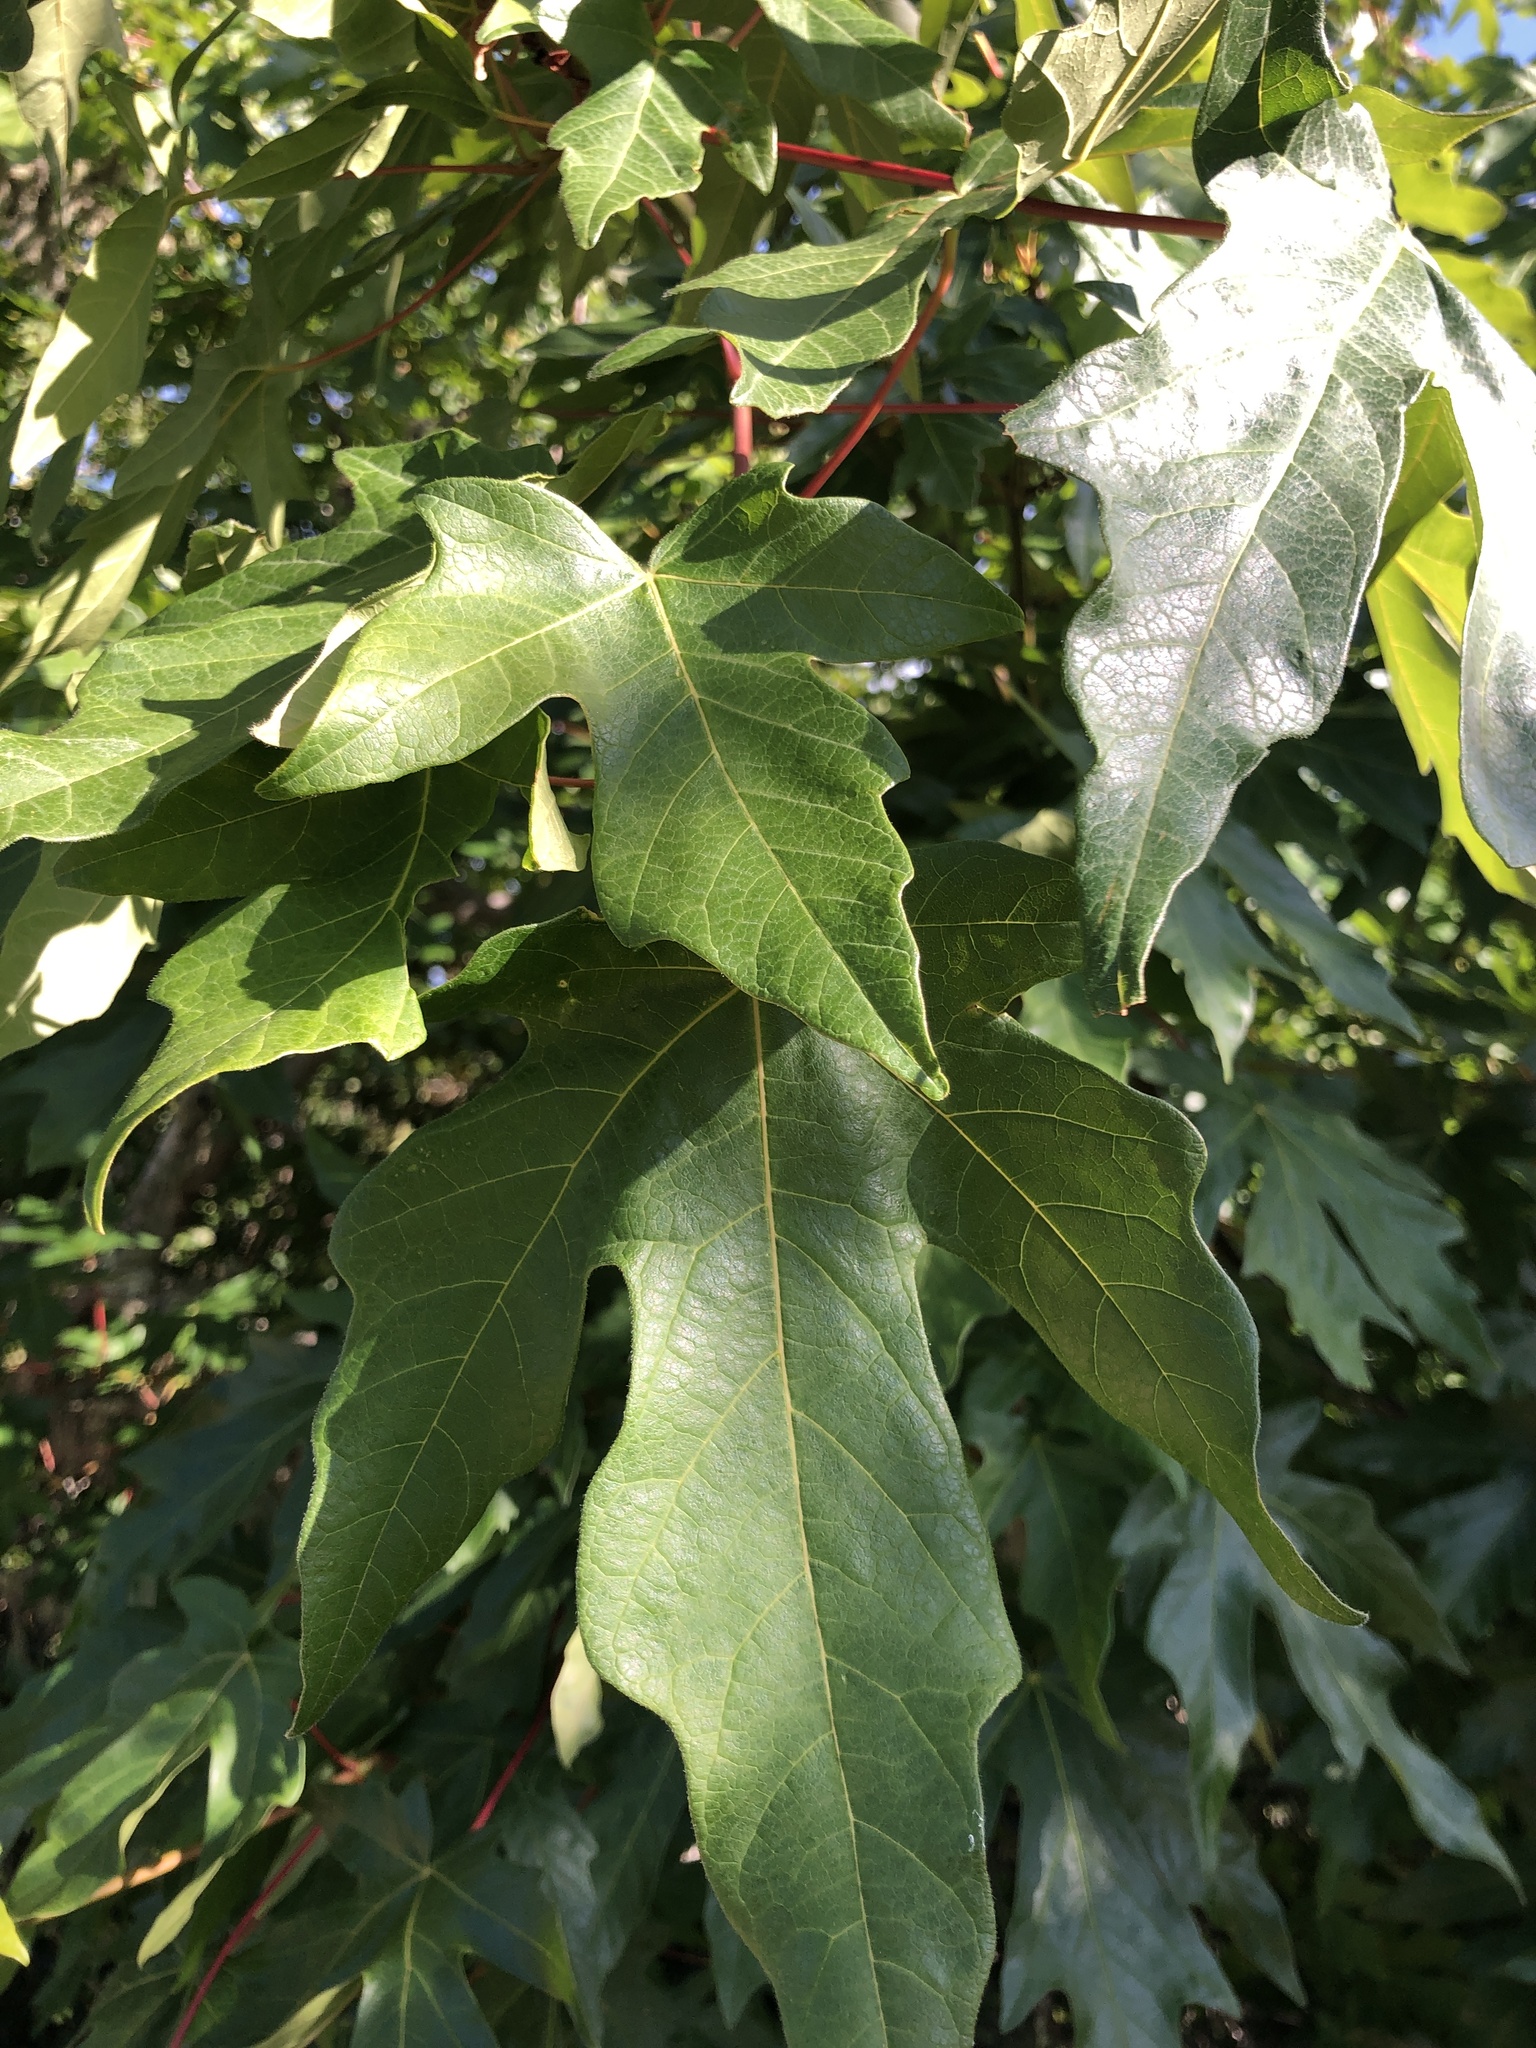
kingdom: Plantae
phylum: Tracheophyta
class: Magnoliopsida
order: Sapindales
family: Sapindaceae
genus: Acer
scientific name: Acer macrophyllum
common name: Oregon maple
